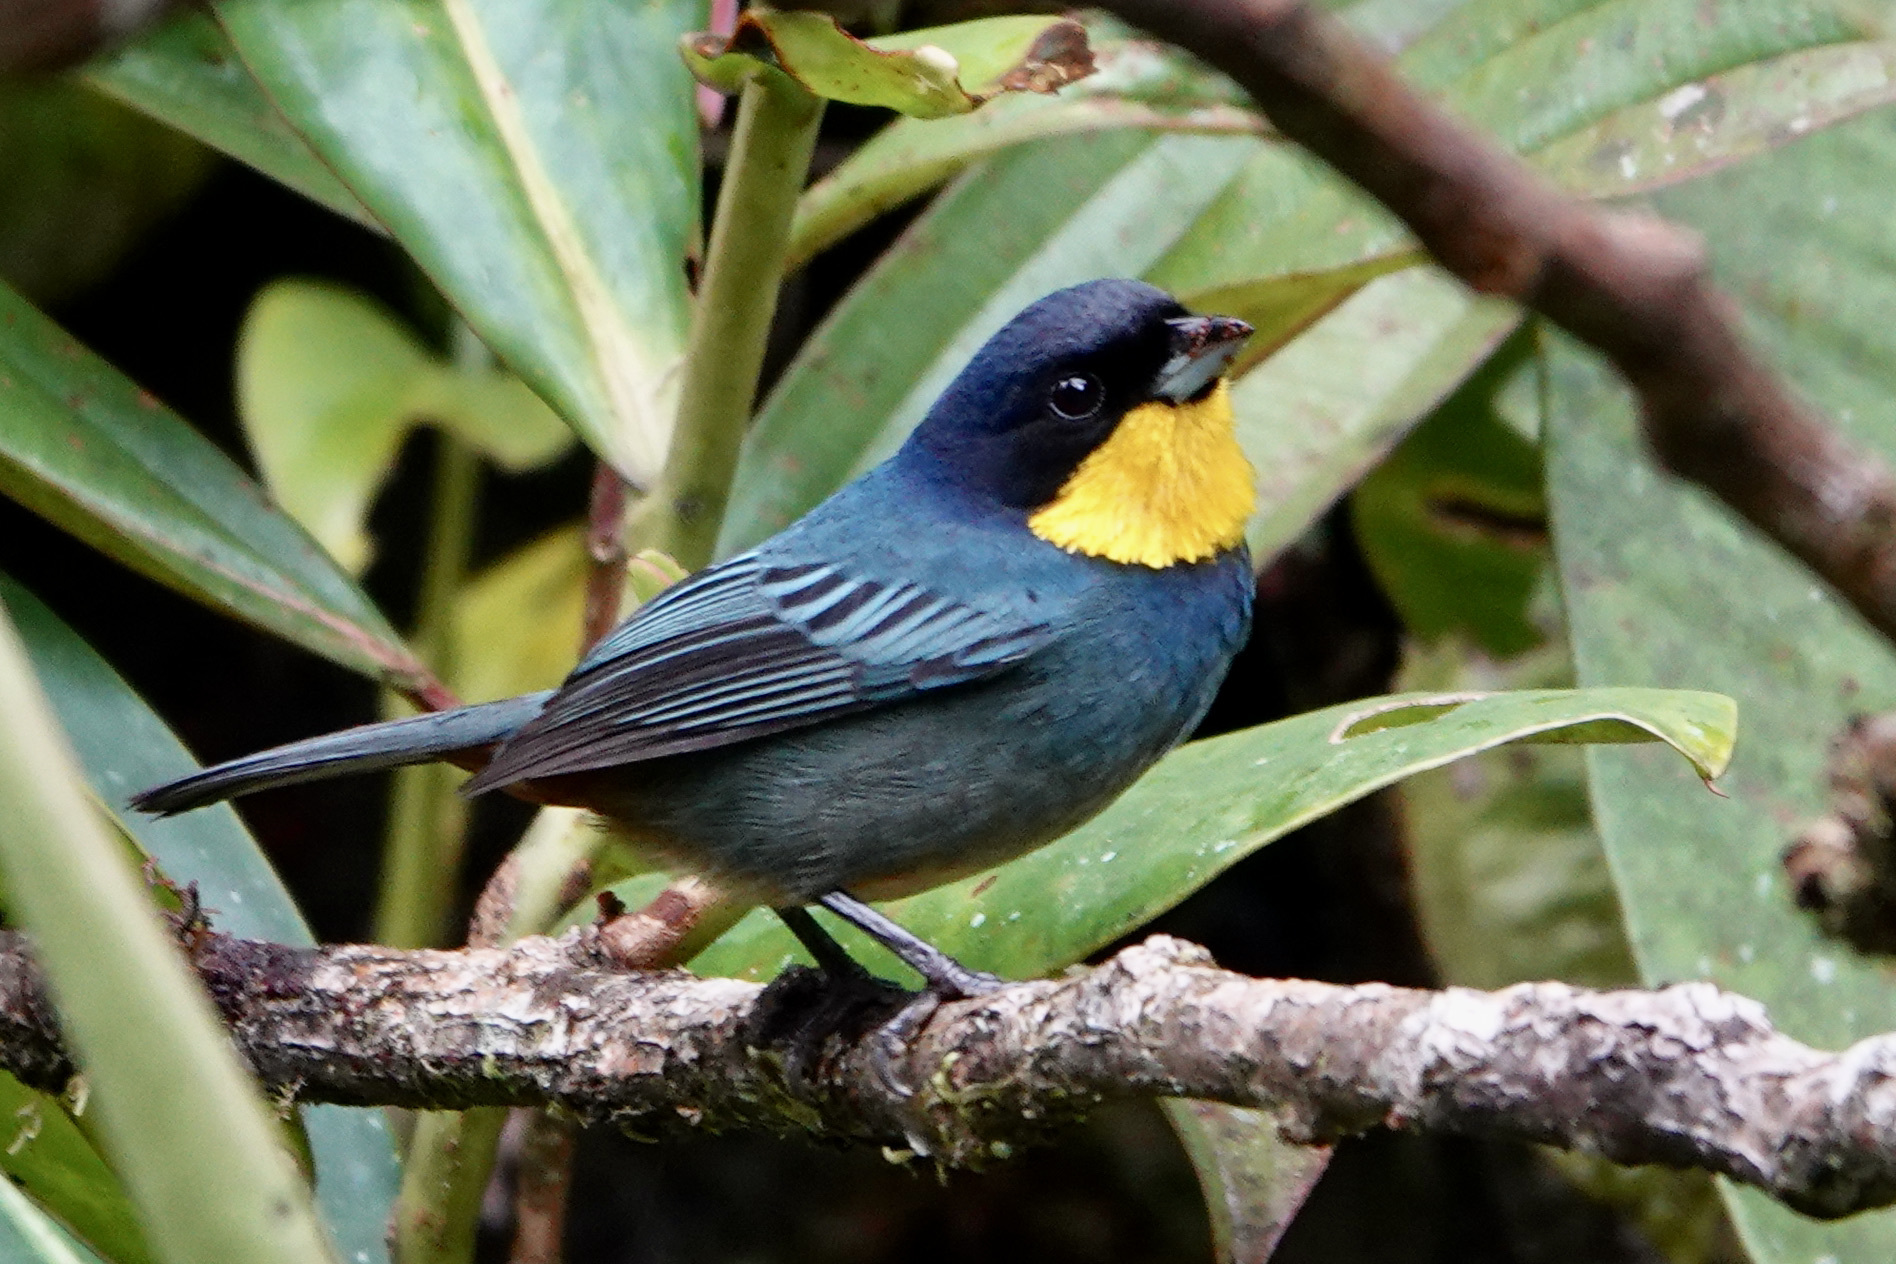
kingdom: Animalia
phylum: Chordata
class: Aves
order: Passeriformes
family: Thraupidae
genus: Iridosornis
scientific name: Iridosornis porphyrocephalus
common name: Purplish-mantled tanager
